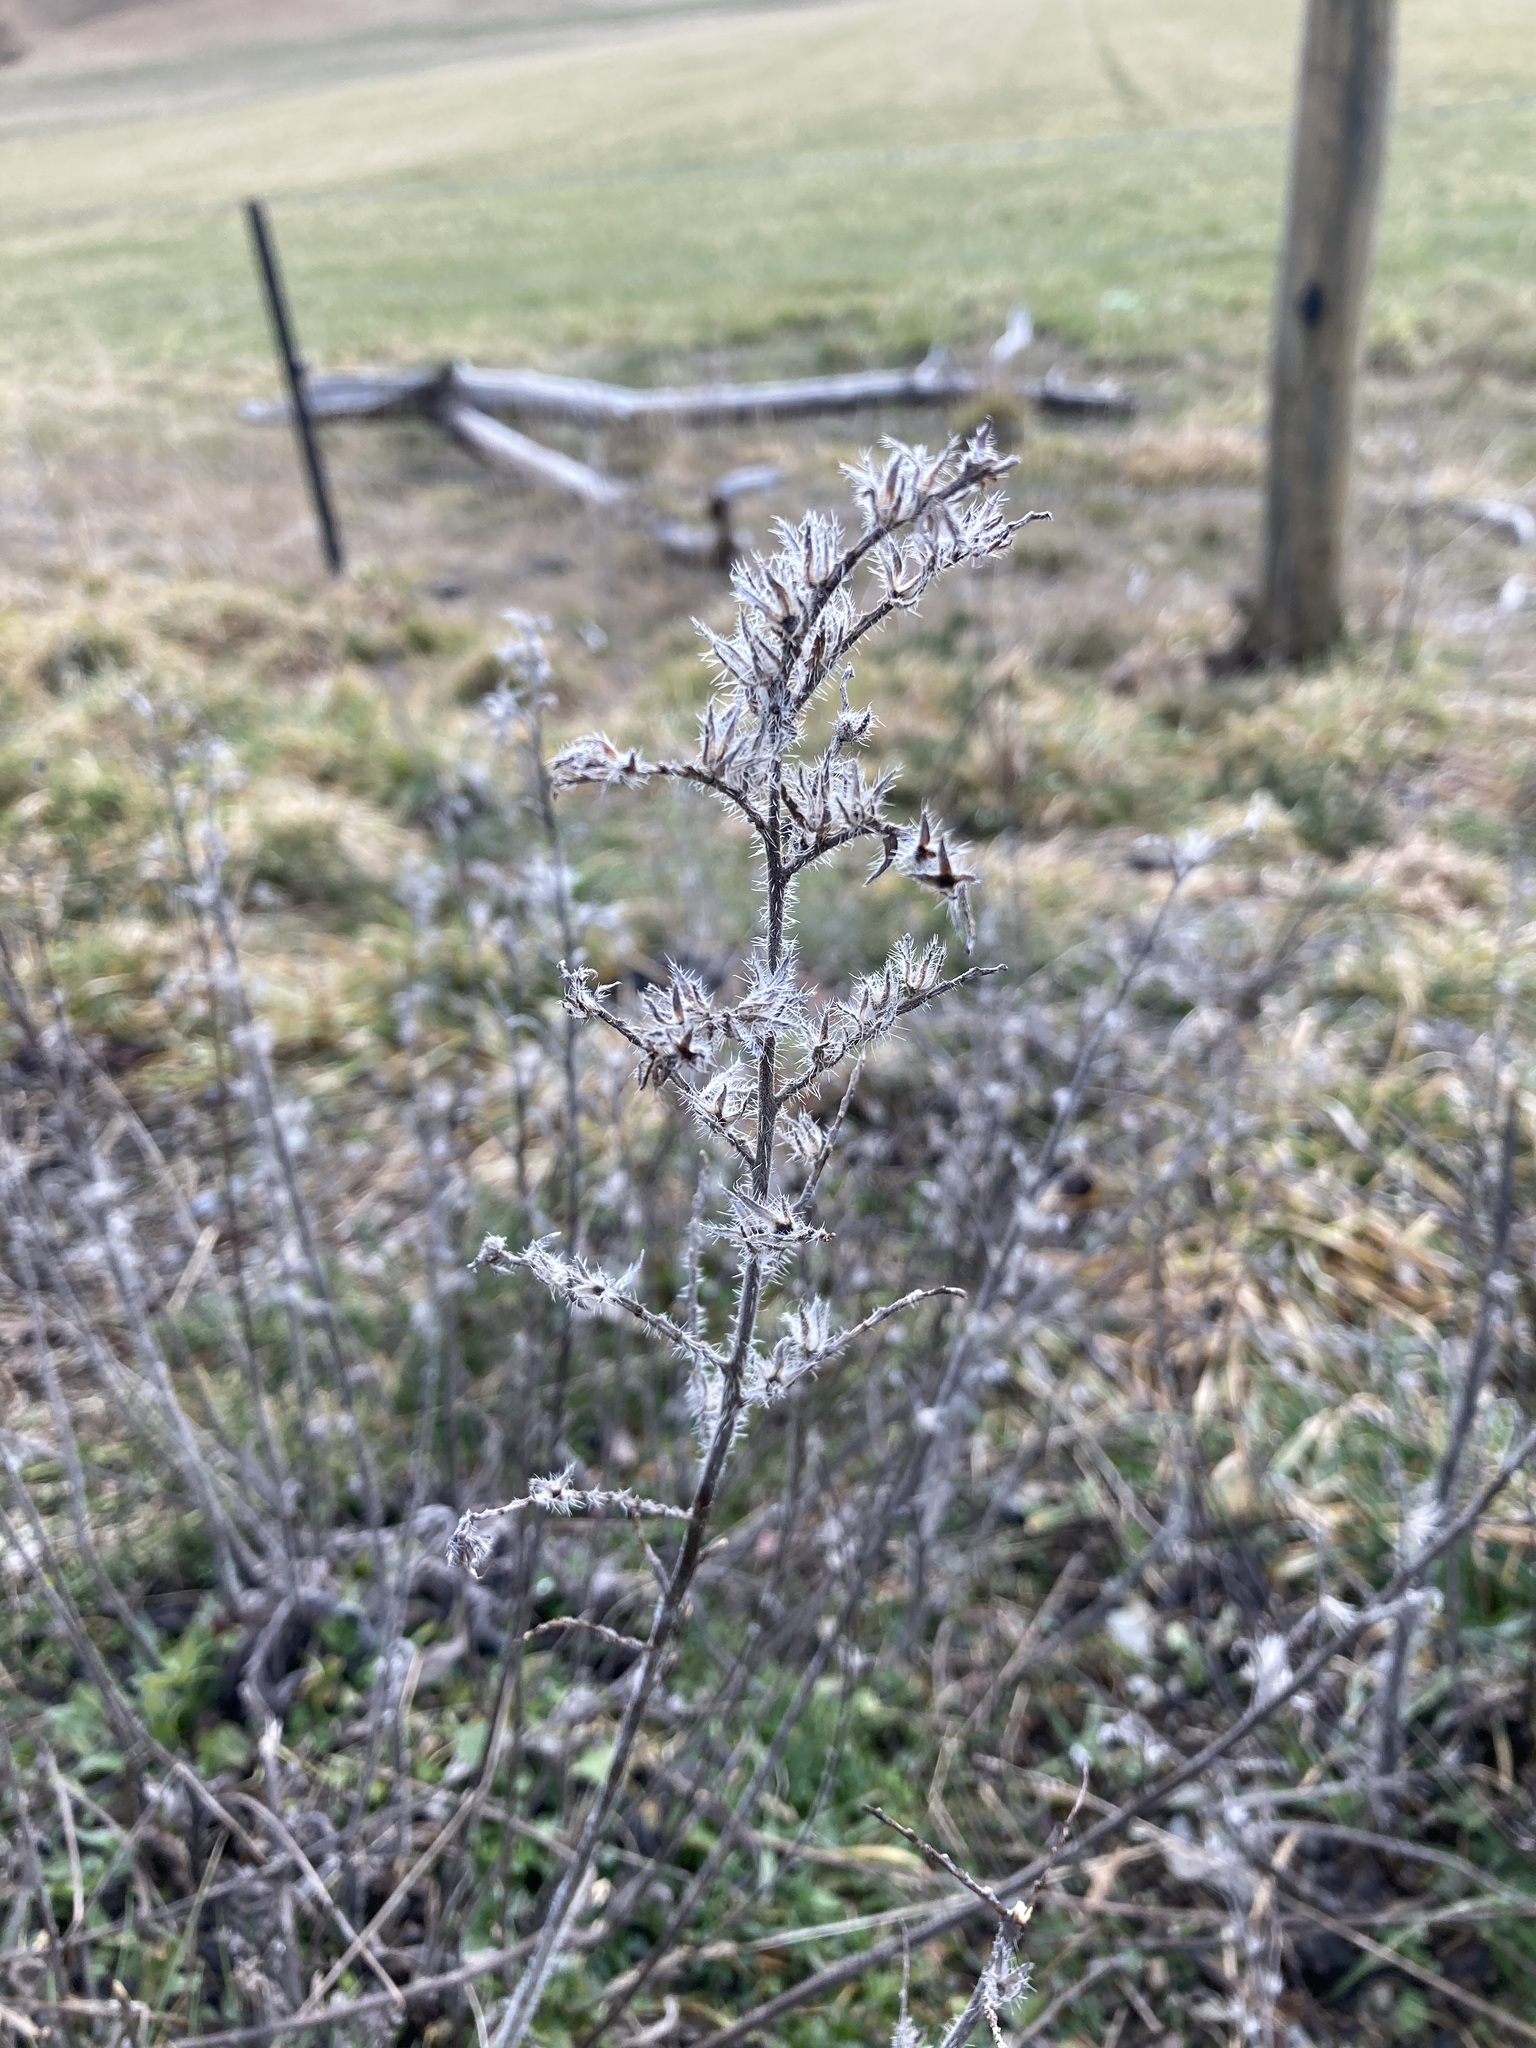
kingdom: Plantae
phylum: Tracheophyta
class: Magnoliopsida
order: Boraginales
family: Boraginaceae
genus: Echium
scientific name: Echium vulgare
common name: Common viper's bugloss
